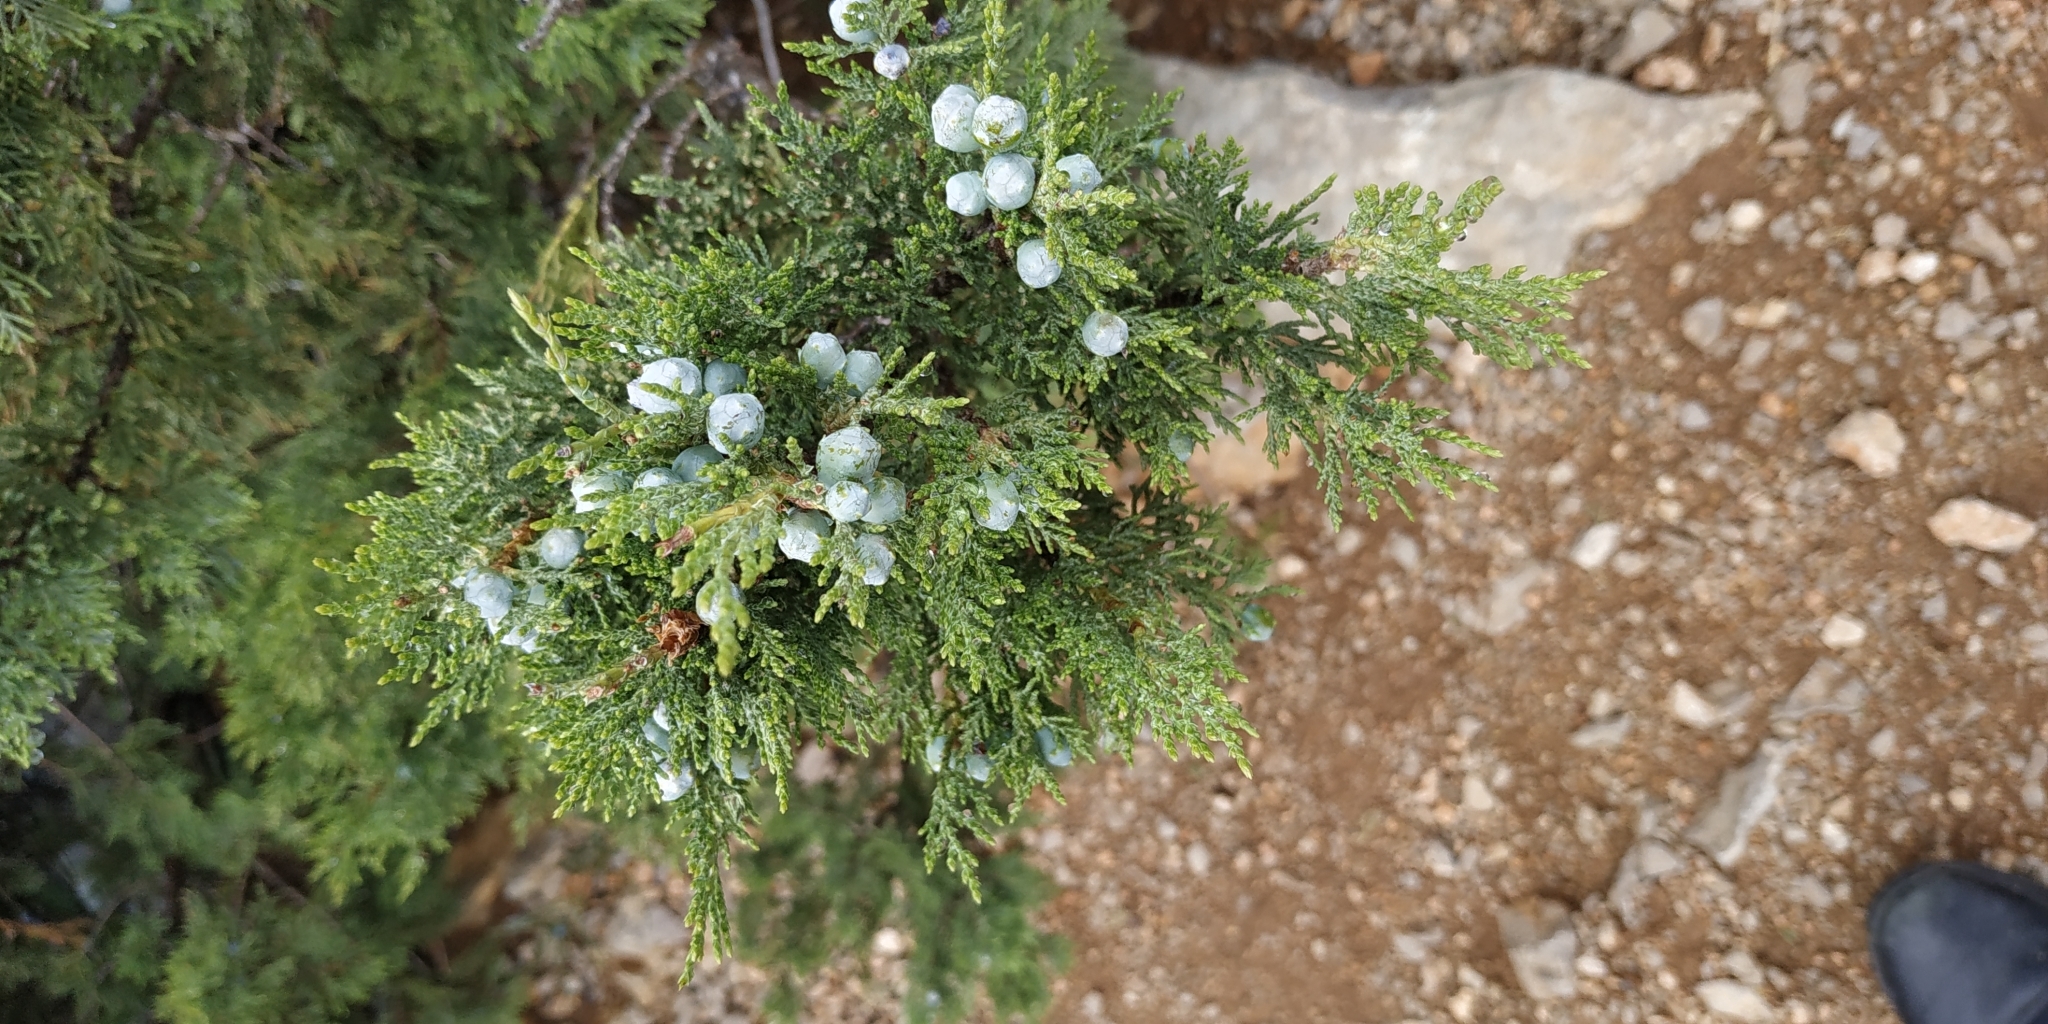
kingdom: Plantae
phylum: Tracheophyta
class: Pinopsida
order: Pinales
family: Cupressaceae
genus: Juniperus
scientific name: Juniperus excelsa
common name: Crimean juniper
